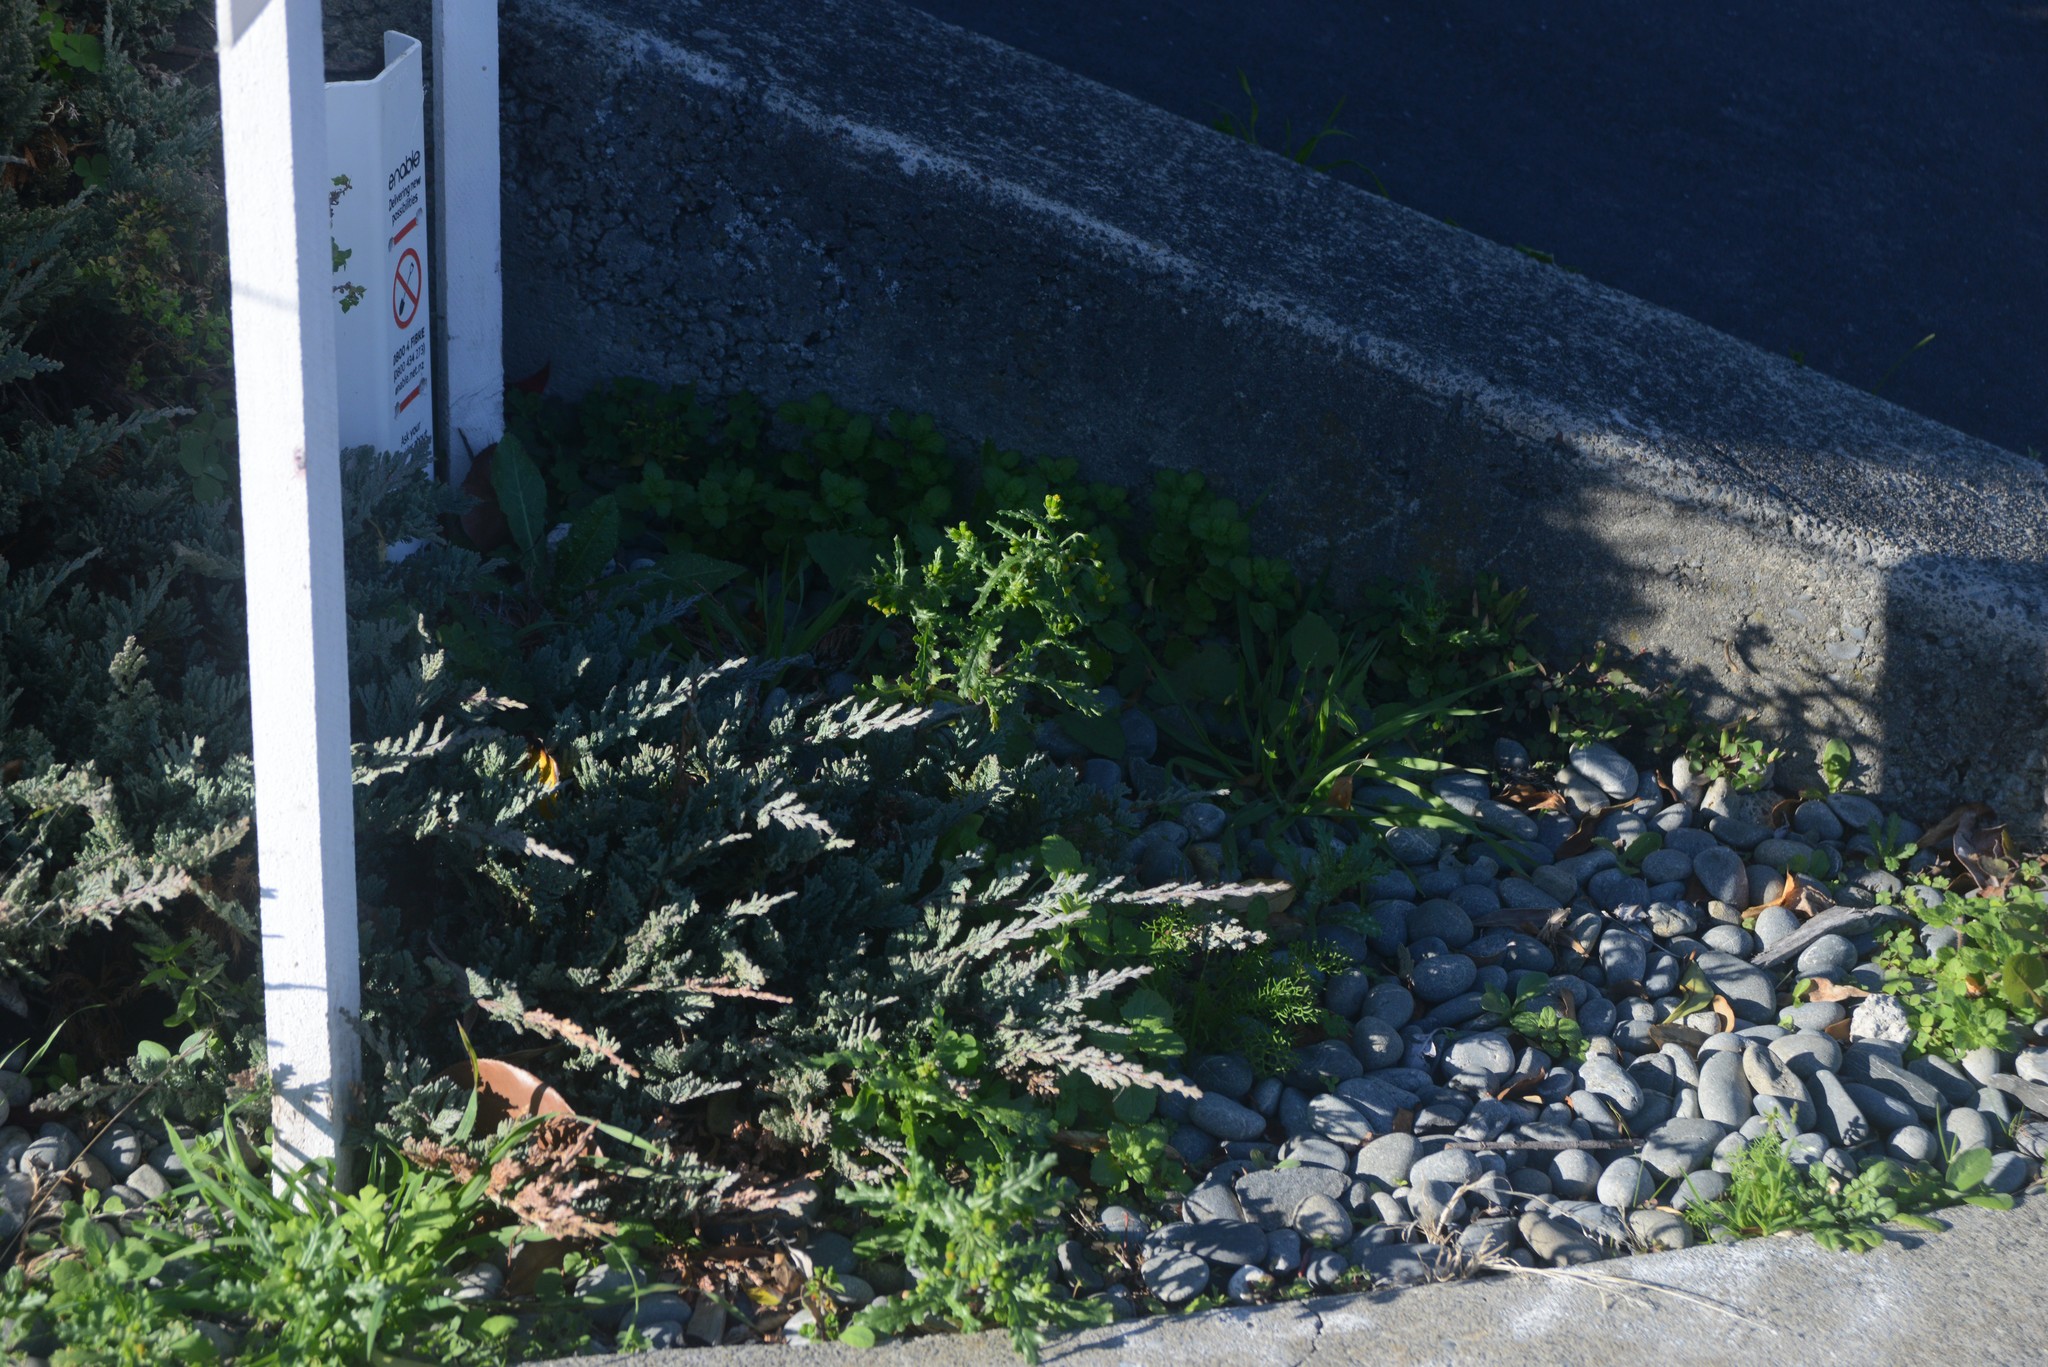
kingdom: Plantae
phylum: Tracheophyta
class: Magnoliopsida
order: Asterales
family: Asteraceae
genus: Senecio
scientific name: Senecio vulgaris
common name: Old-man-in-the-spring
